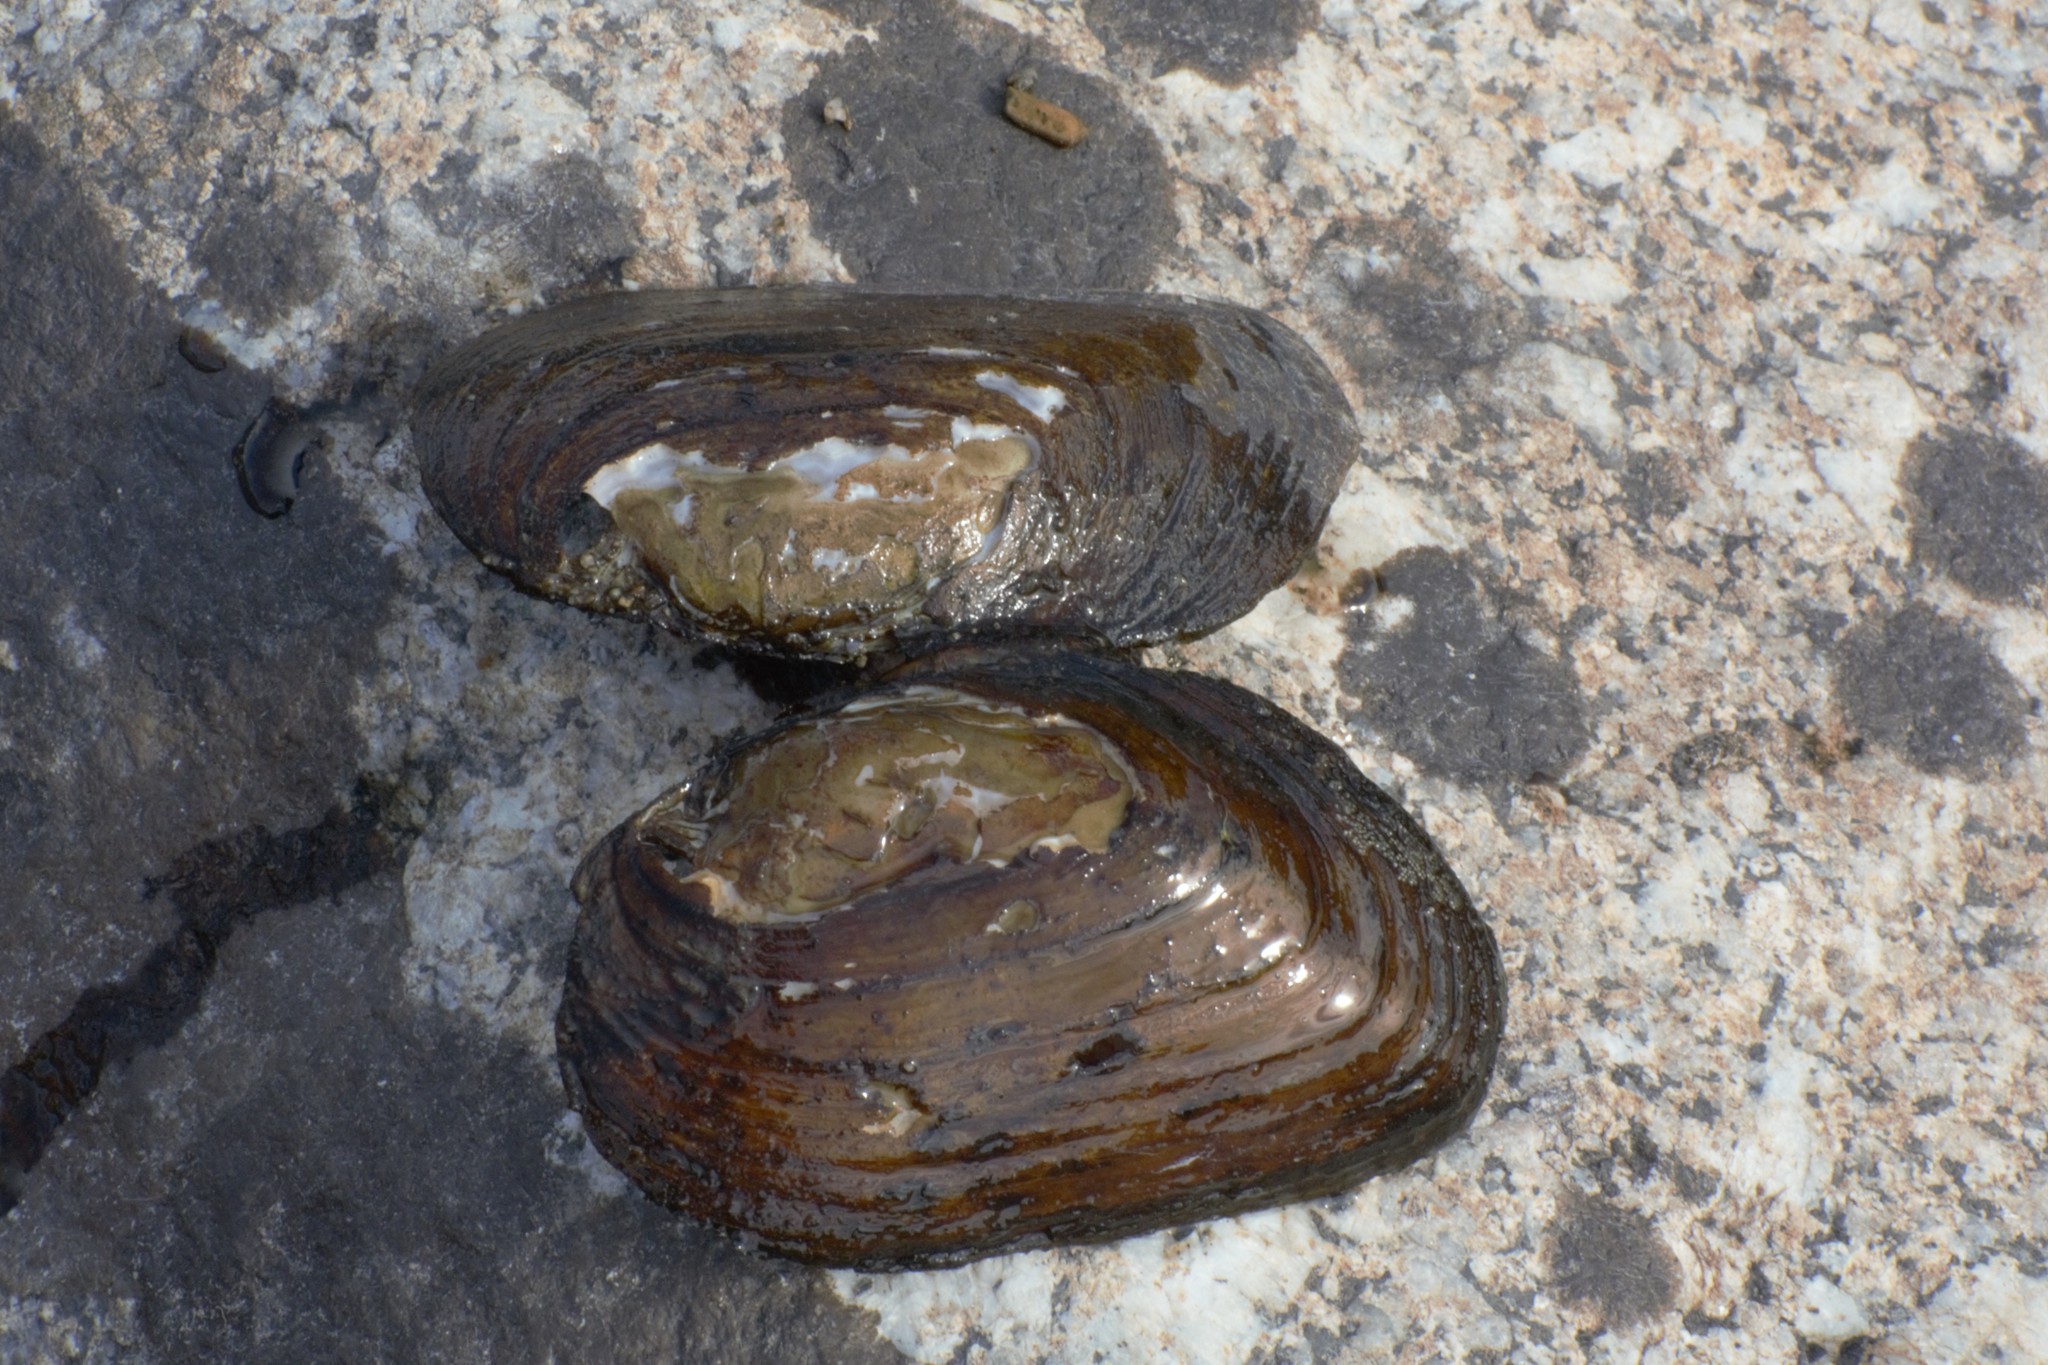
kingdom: Animalia
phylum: Mollusca
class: Bivalvia
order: Unionida
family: Unionidae
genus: Elliptio
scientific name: Elliptio complanata
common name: Eastern elliptio
